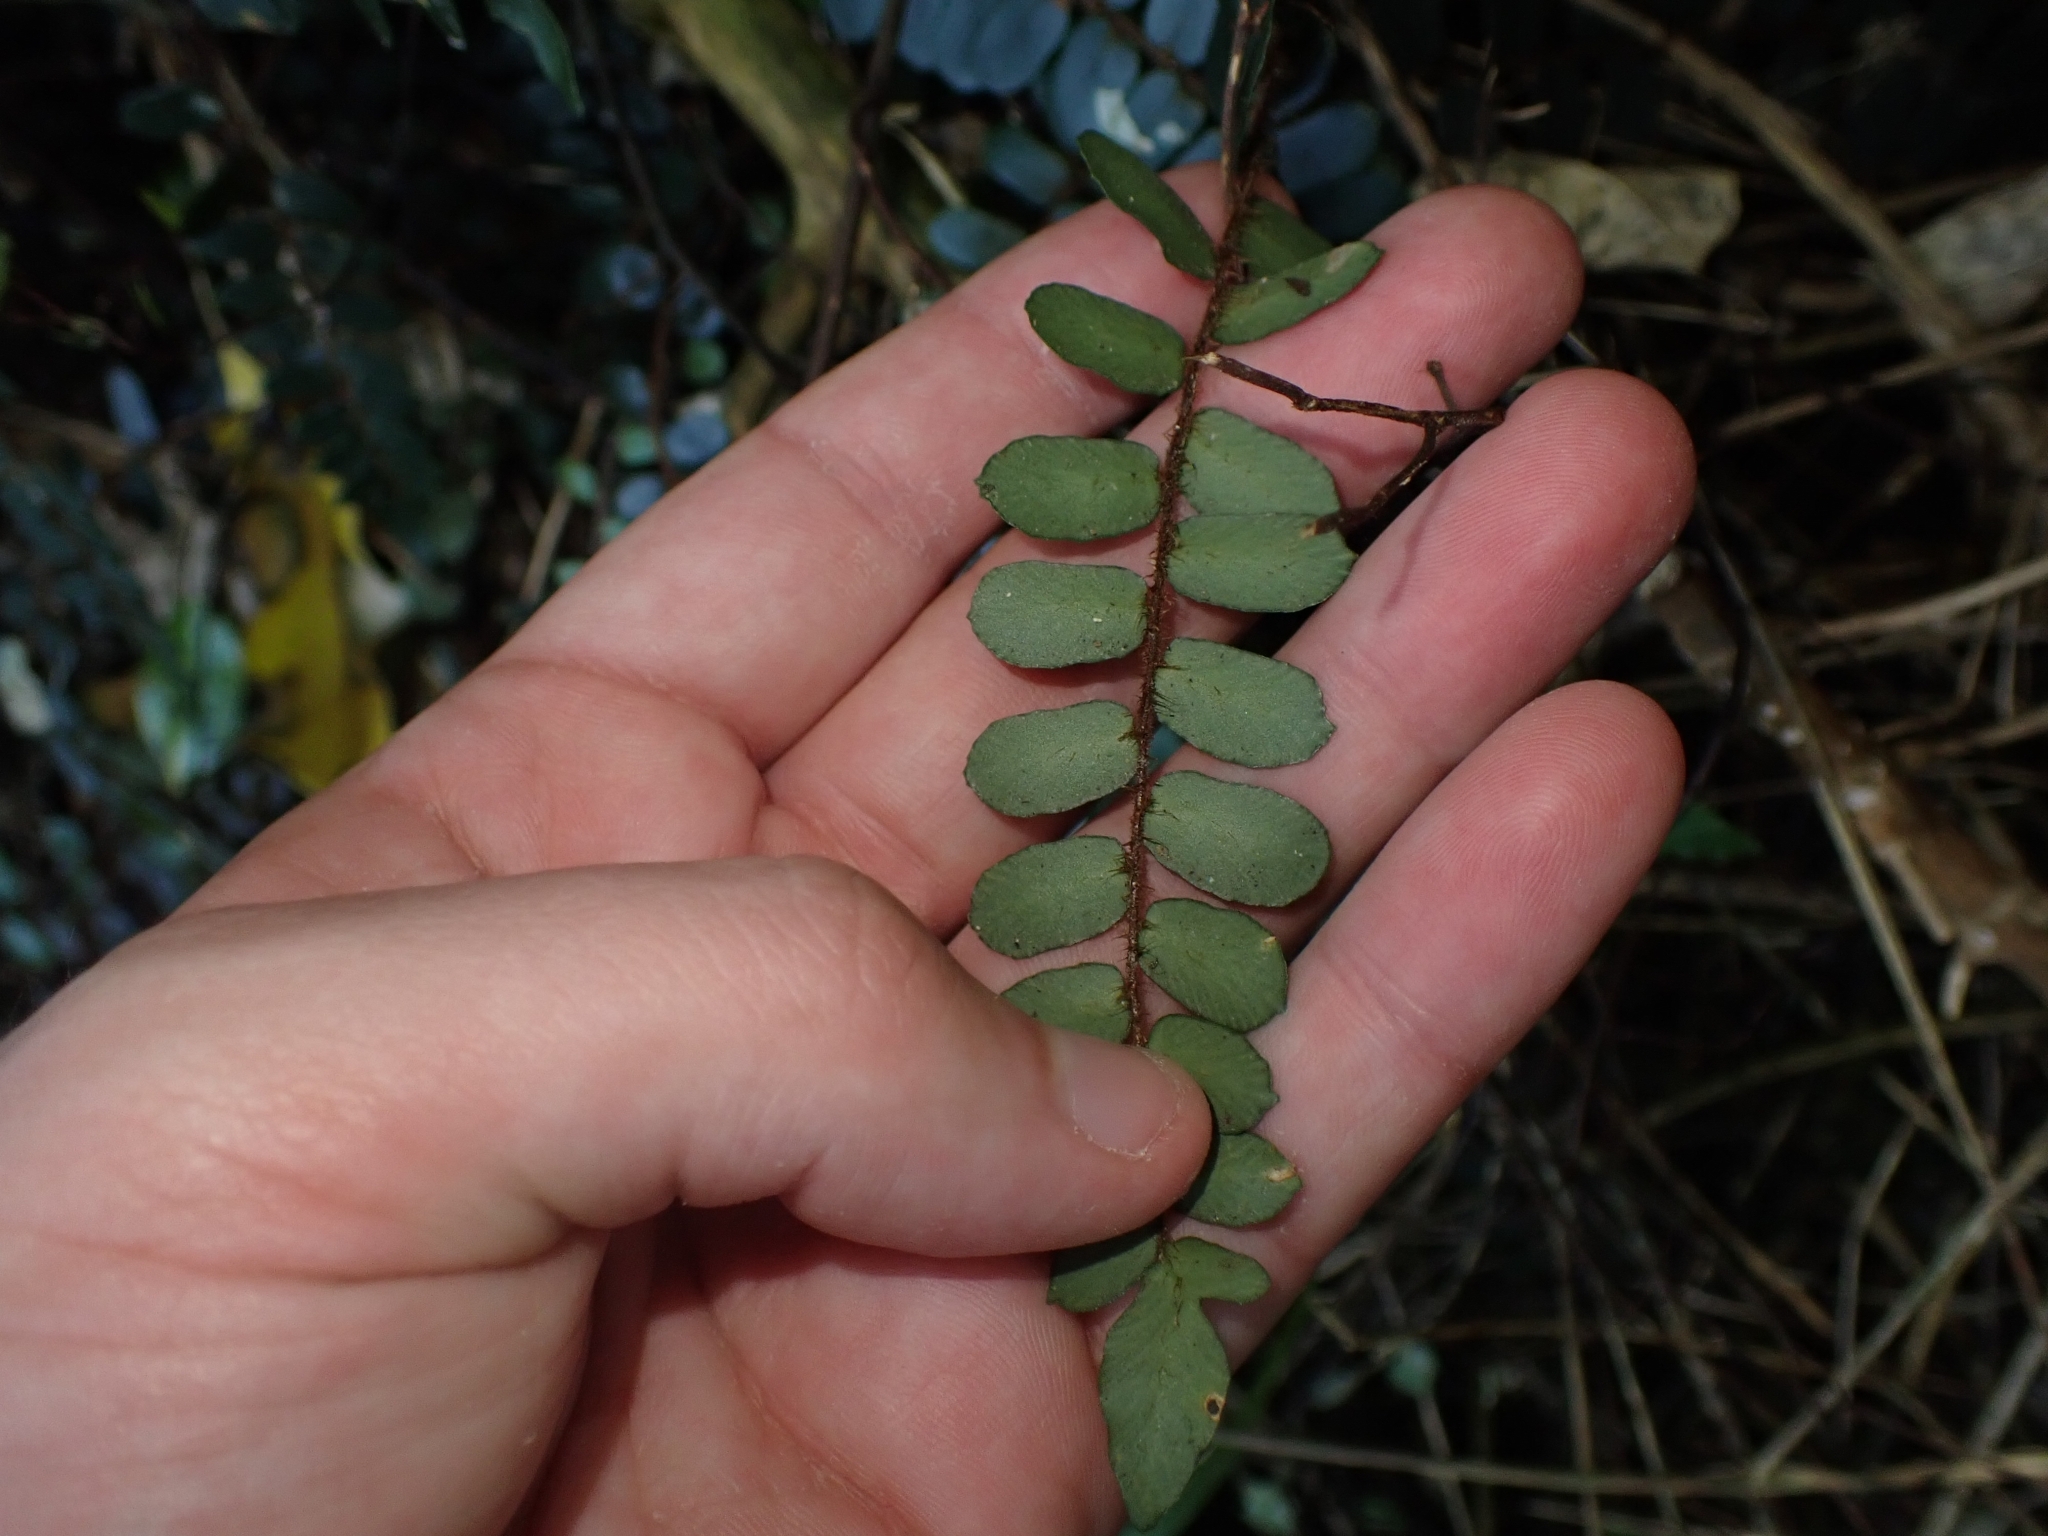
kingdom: Plantae
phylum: Tracheophyta
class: Polypodiopsida
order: Polypodiales
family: Pteridaceae
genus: Pellaea
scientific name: Pellaea rotundifolia
